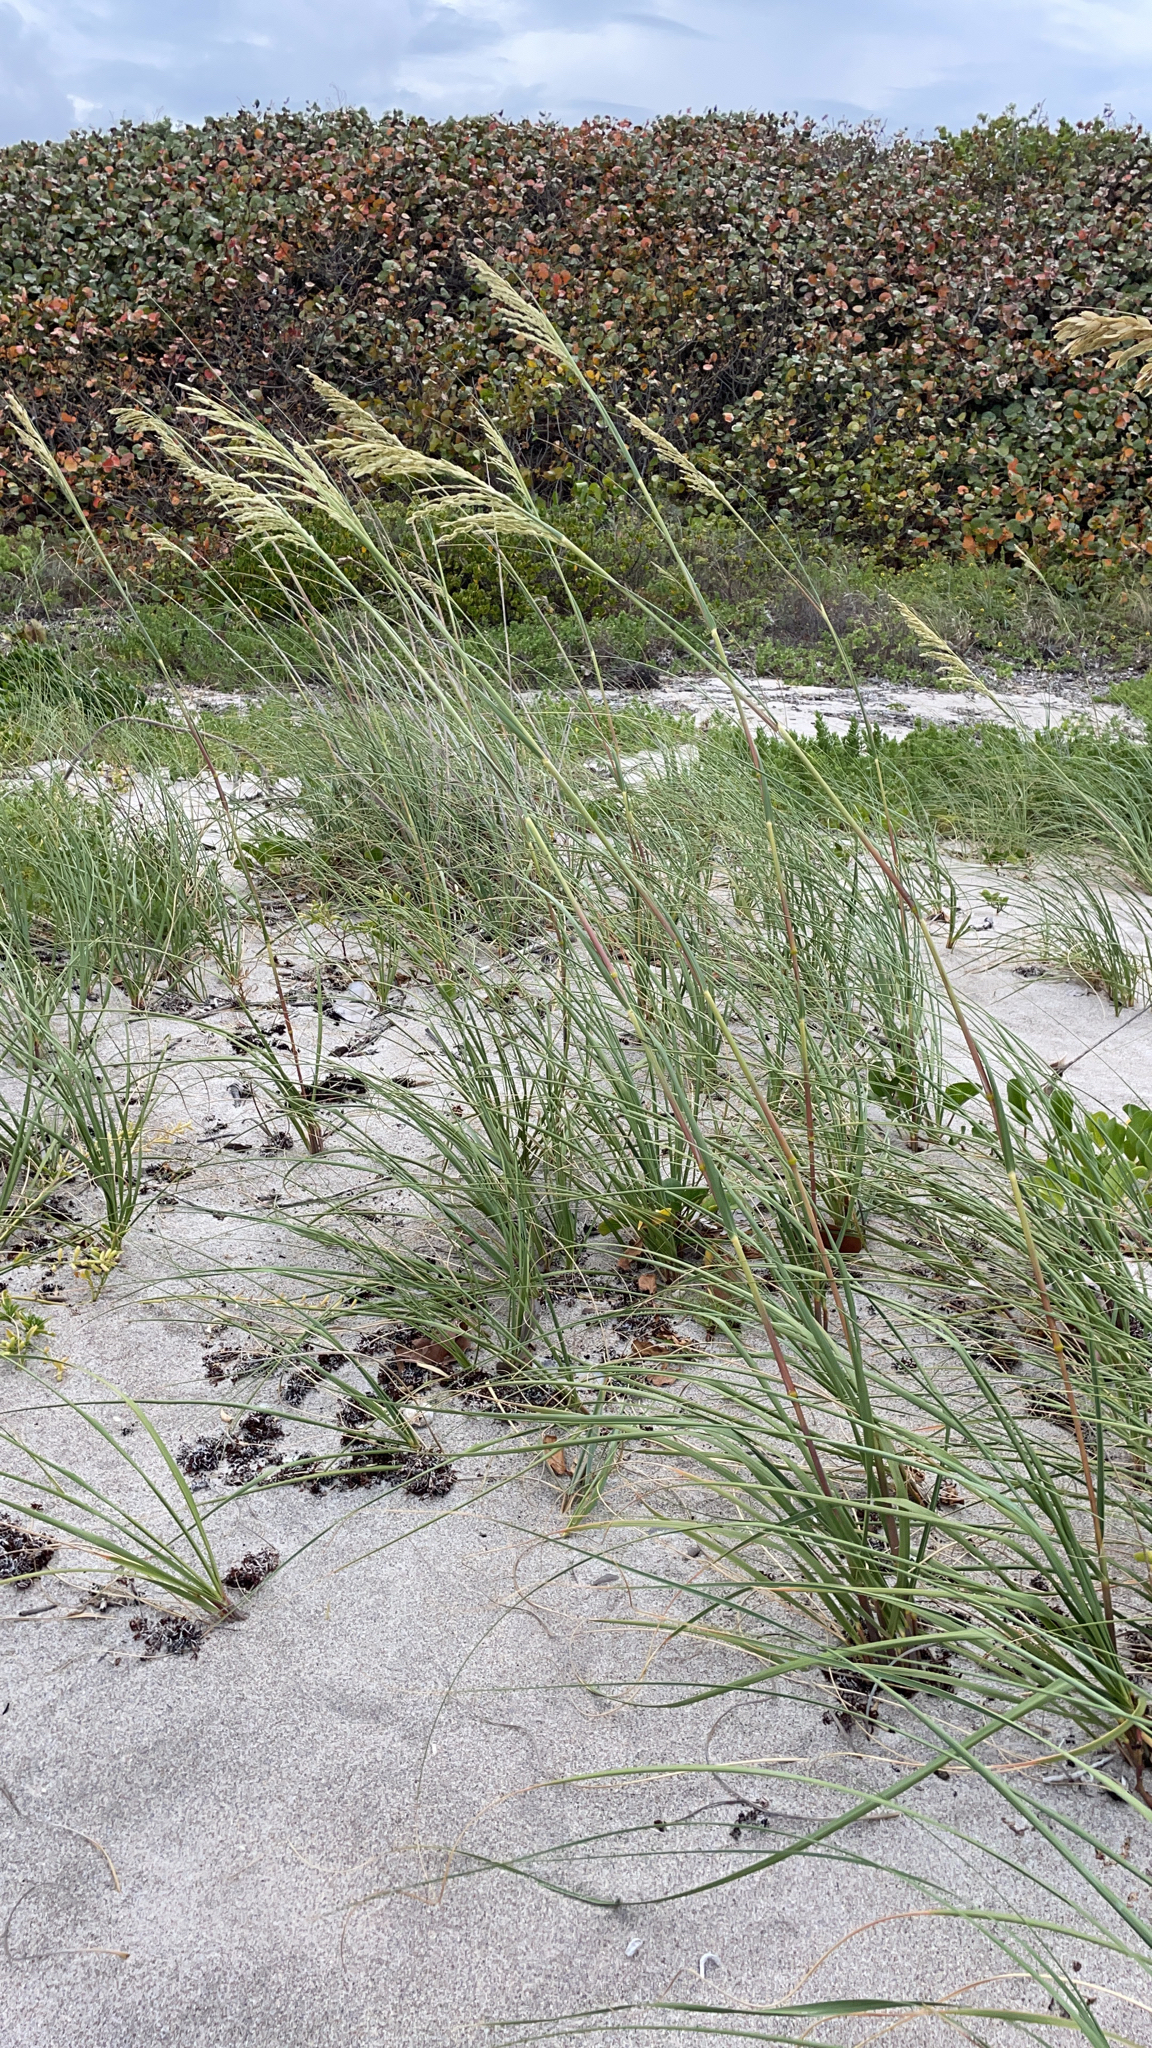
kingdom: Plantae
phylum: Tracheophyta
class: Liliopsida
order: Poales
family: Poaceae
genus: Uniola
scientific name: Uniola paniculata
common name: Seaside-oats
